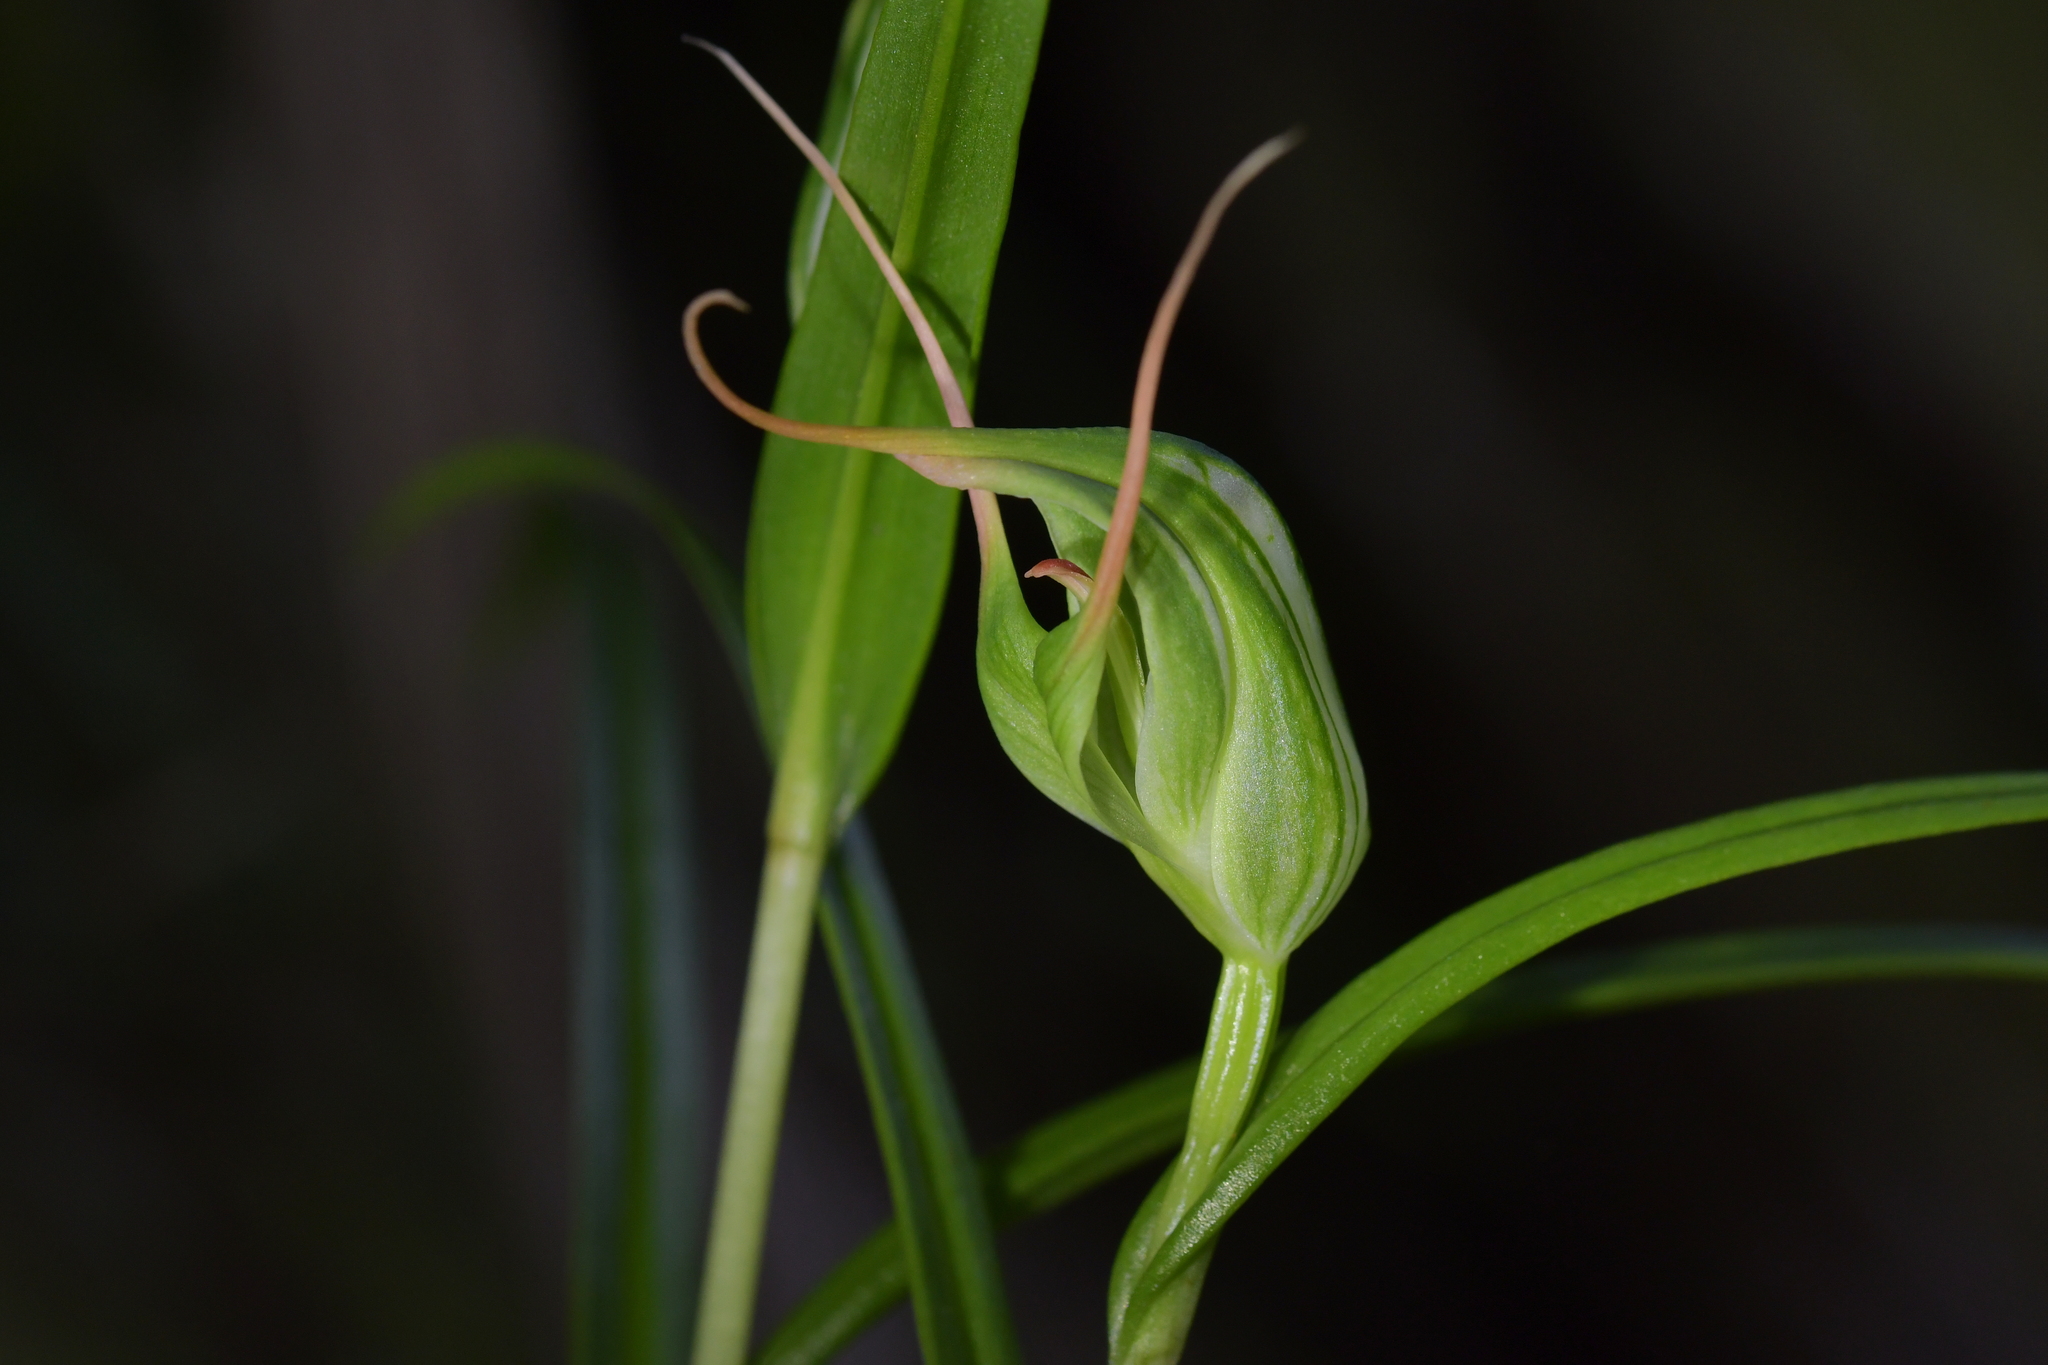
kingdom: Plantae
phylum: Tracheophyta
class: Liliopsida
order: Asparagales
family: Orchidaceae
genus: Pterostylis
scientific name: Pterostylis banksii
